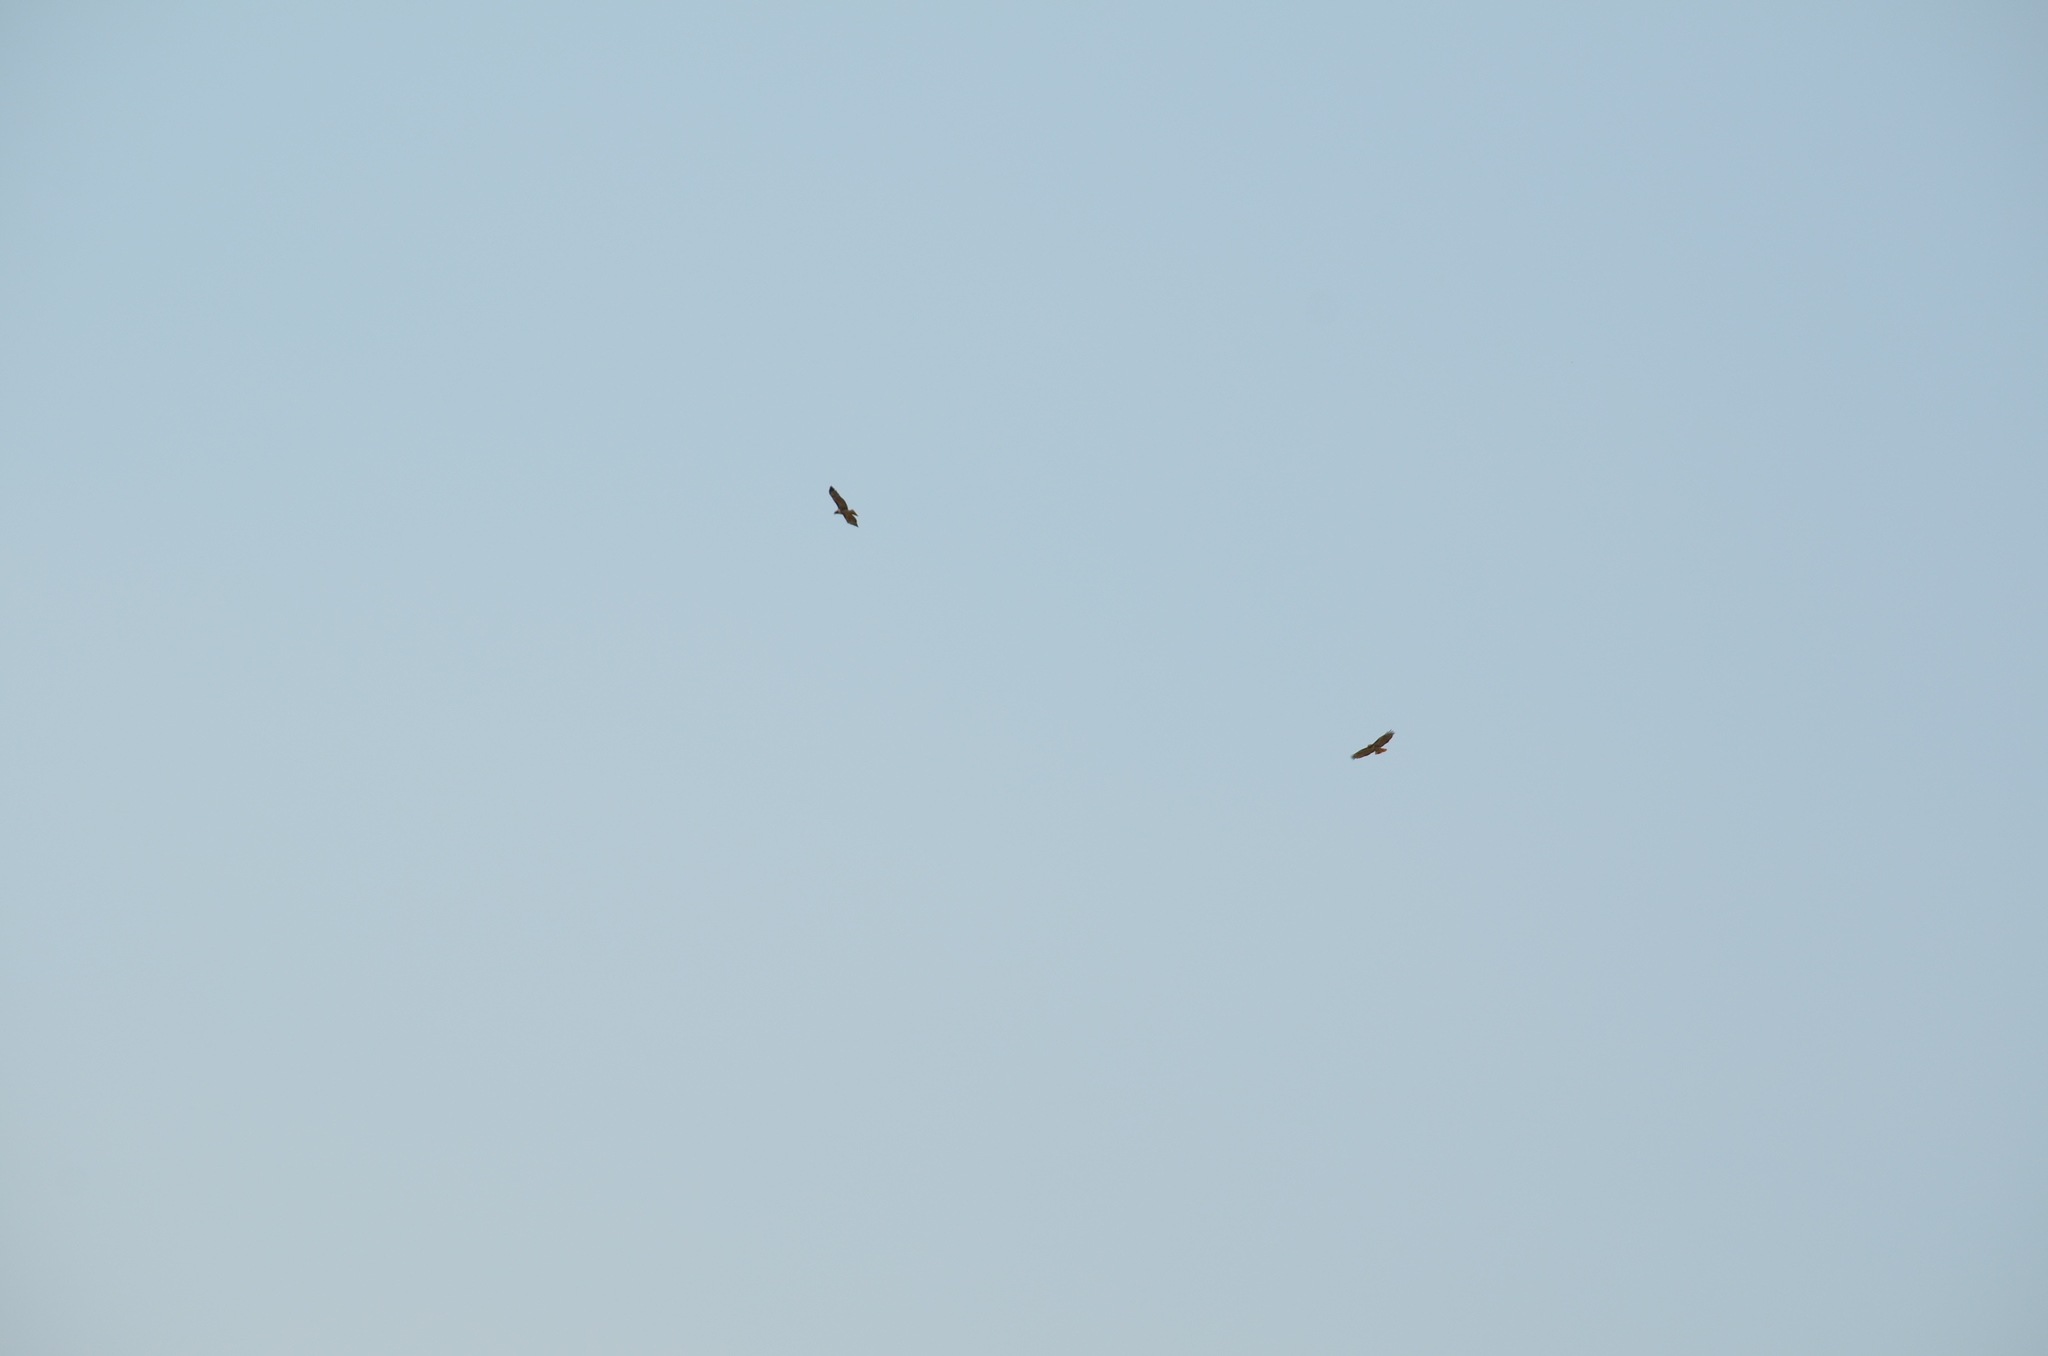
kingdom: Animalia
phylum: Chordata
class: Aves
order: Accipitriformes
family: Accipitridae
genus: Buteo
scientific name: Buteo jamaicensis
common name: Red-tailed hawk
